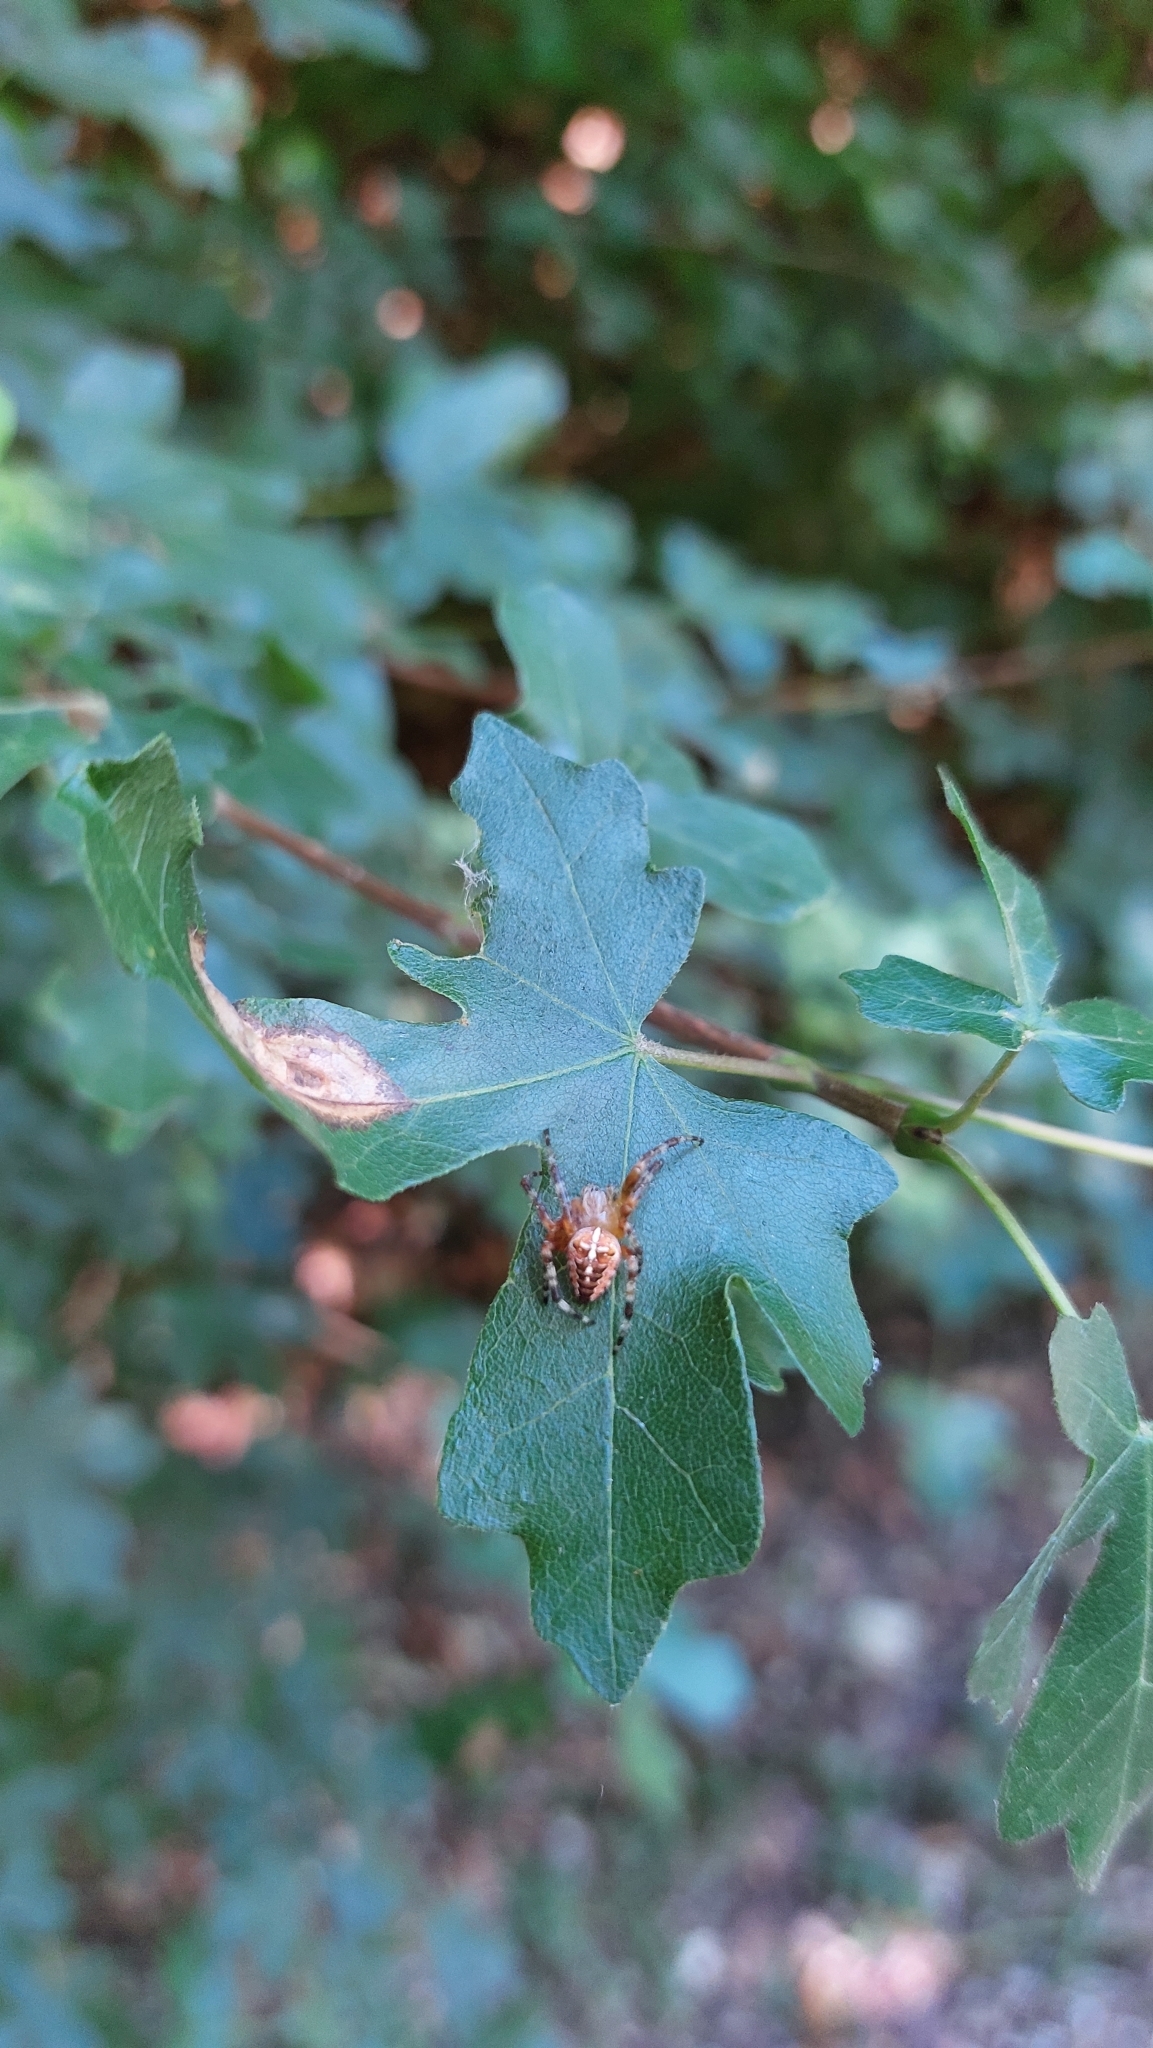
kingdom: Animalia
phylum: Arthropoda
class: Arachnida
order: Araneae
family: Araneidae
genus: Araneus
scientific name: Araneus diadematus
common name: Cross orbweaver
